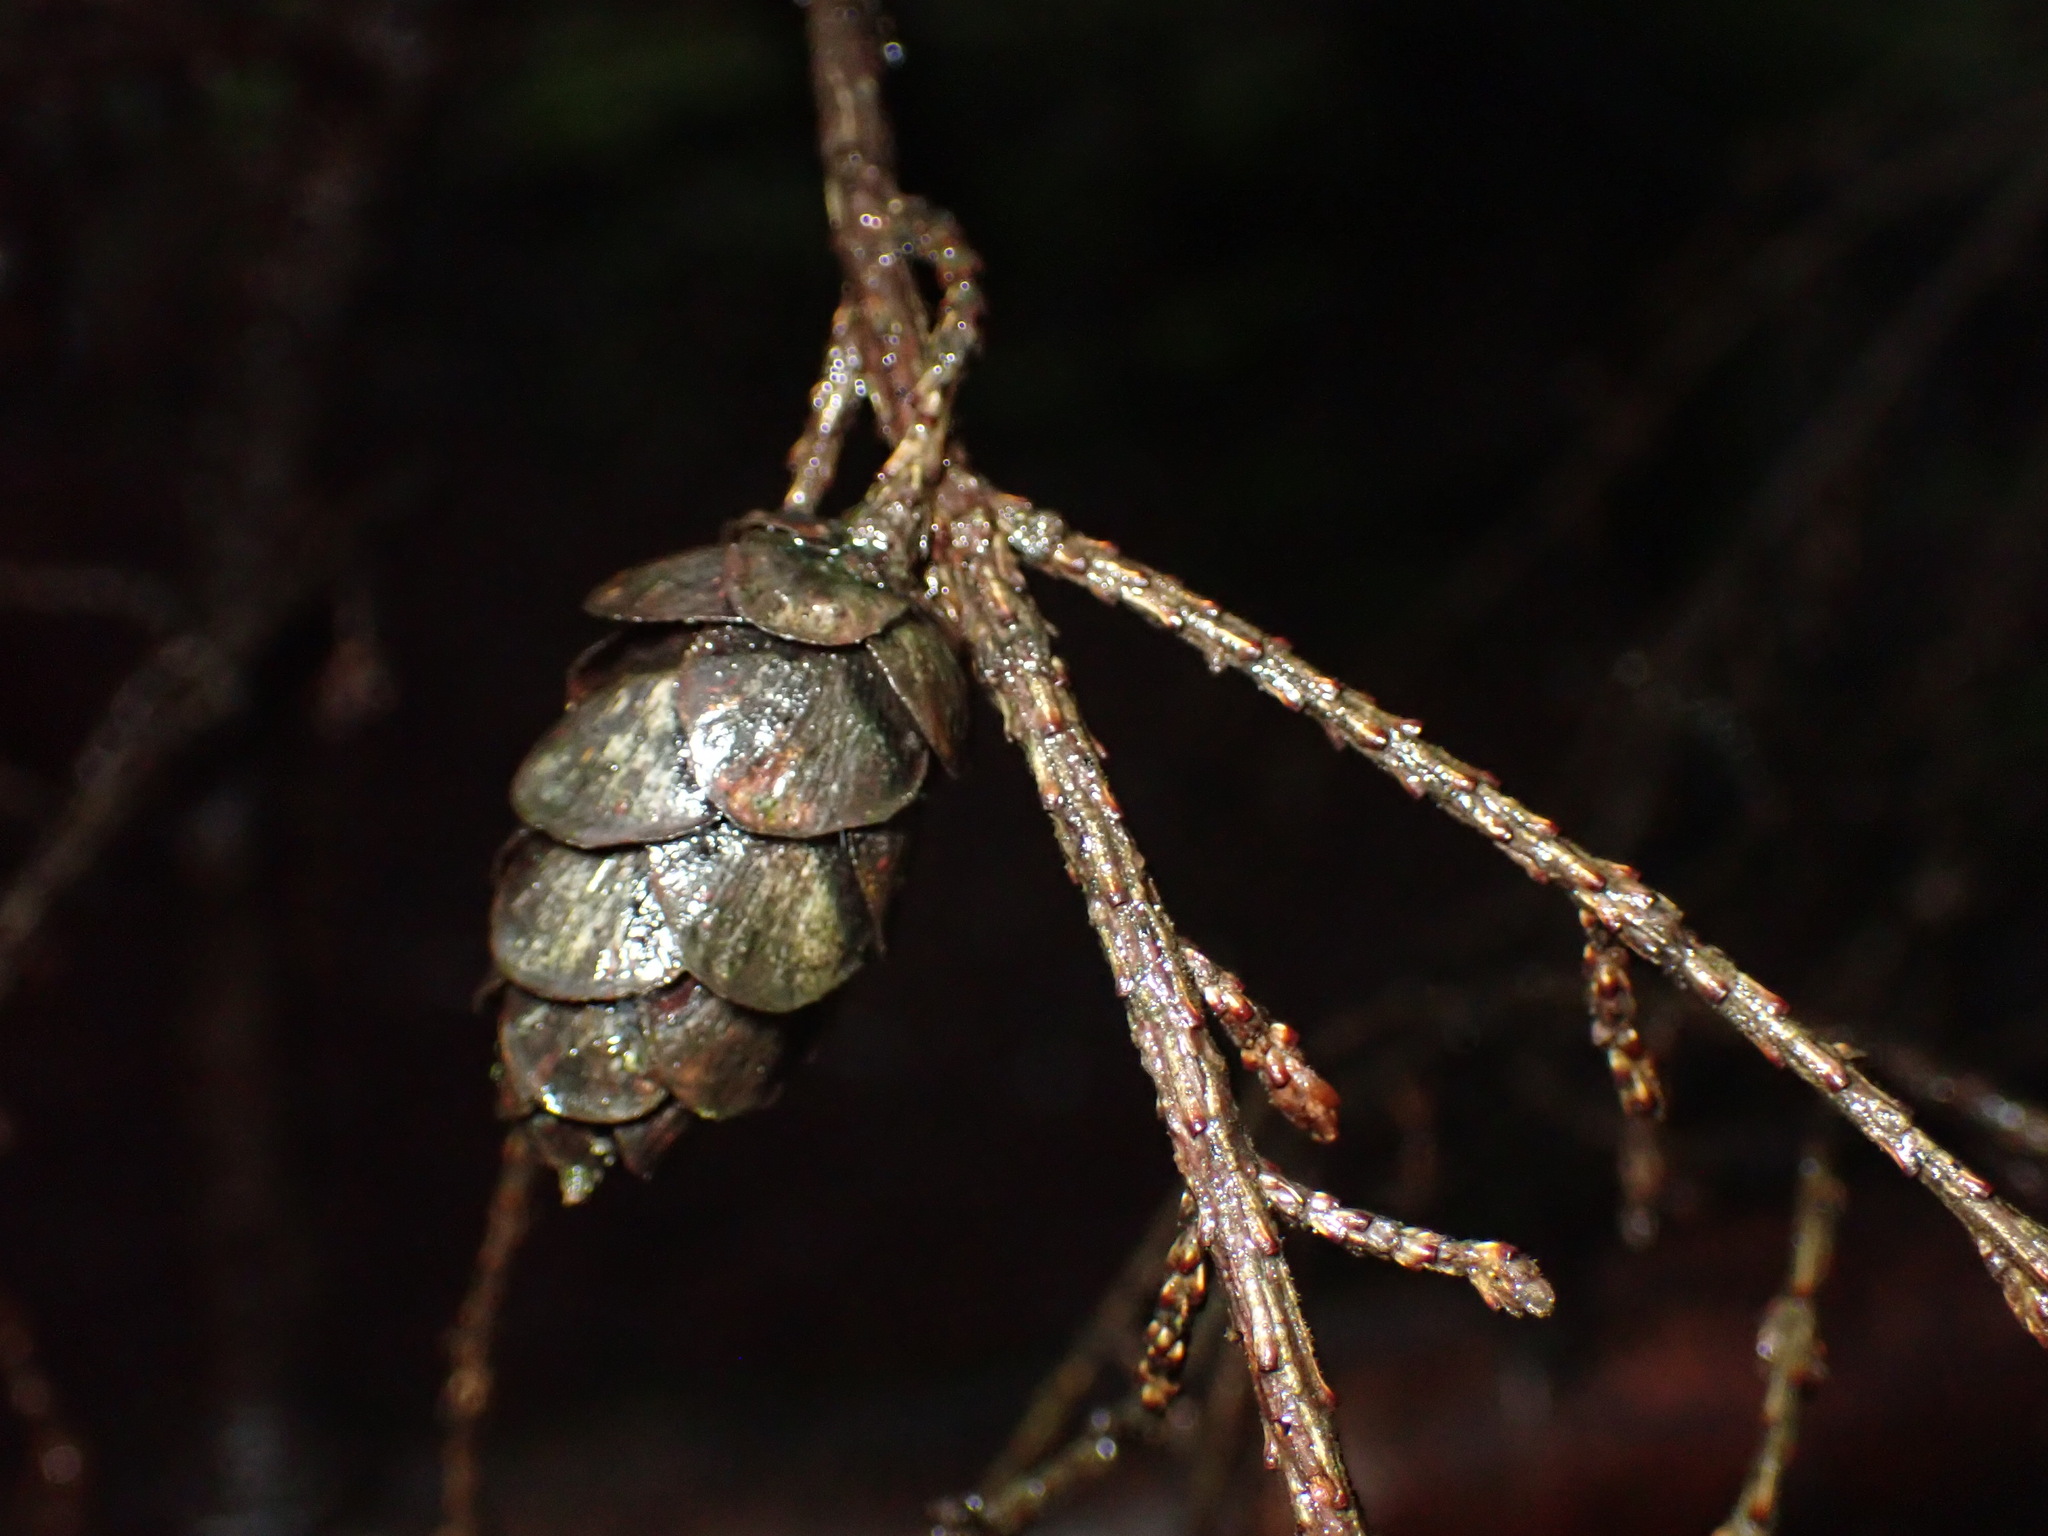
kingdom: Plantae
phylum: Tracheophyta
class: Pinopsida
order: Pinales
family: Pinaceae
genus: Tsuga
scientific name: Tsuga heterophylla
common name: Western hemlock
